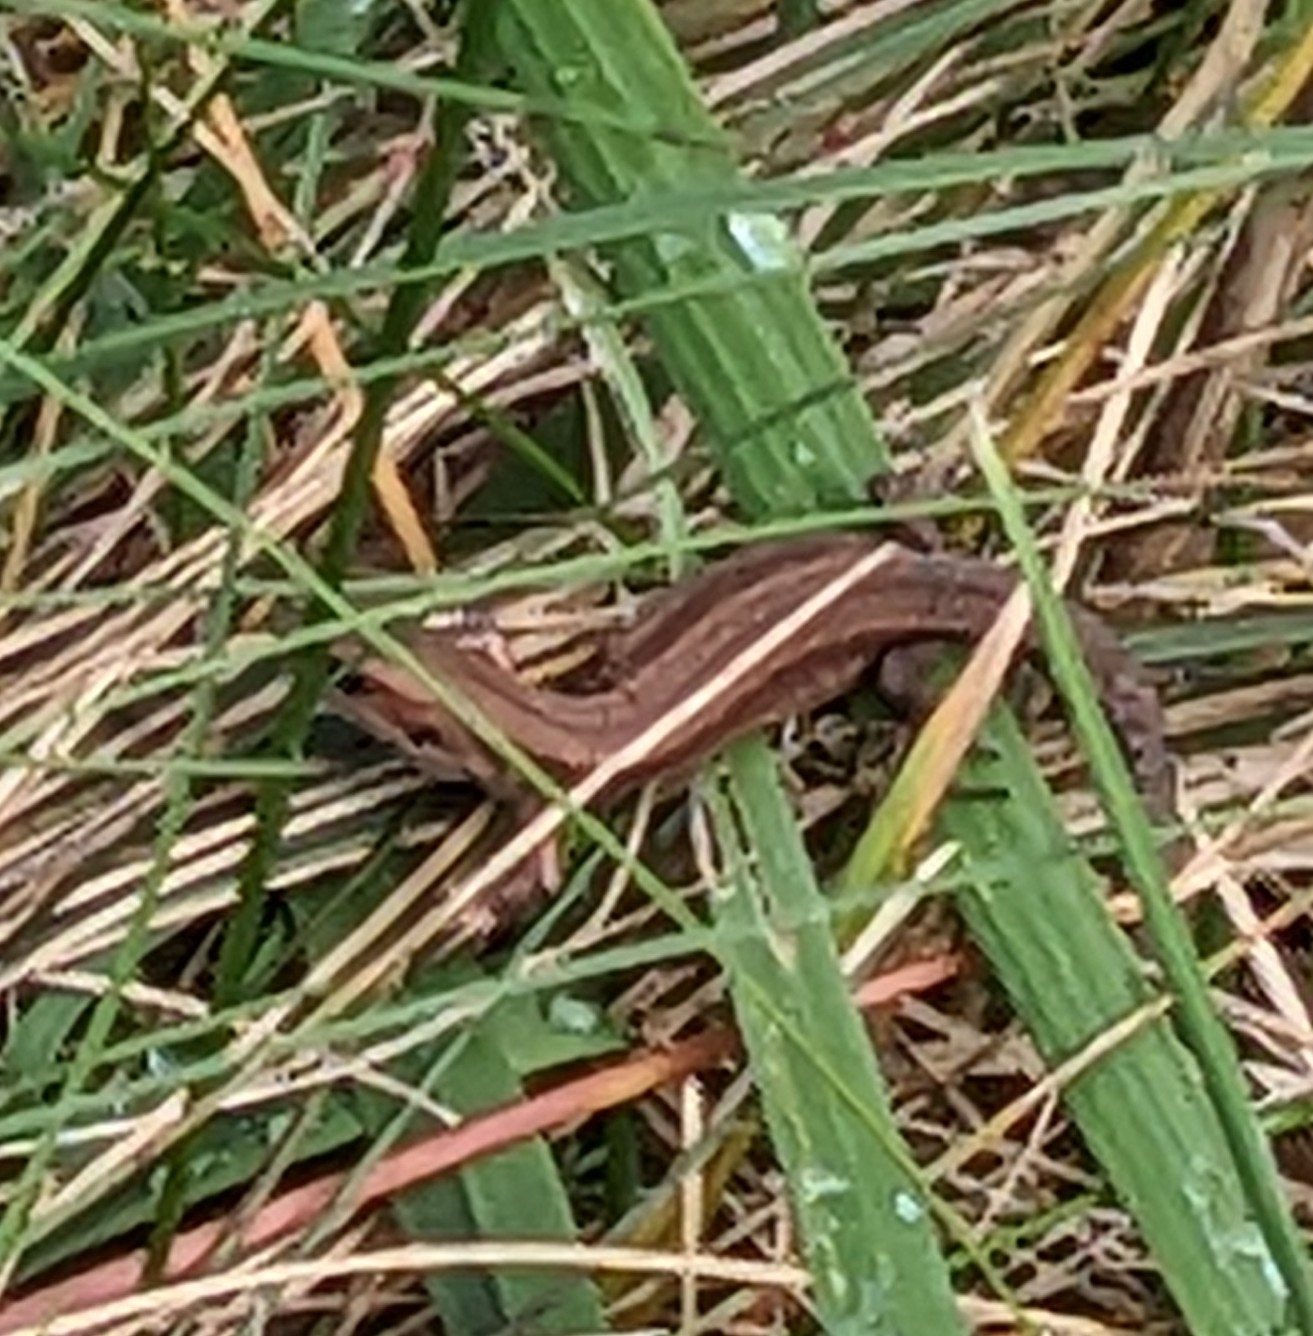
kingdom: Animalia
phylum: Chordata
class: Squamata
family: Lacertidae
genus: Zootoca
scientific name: Zootoca vivipara
